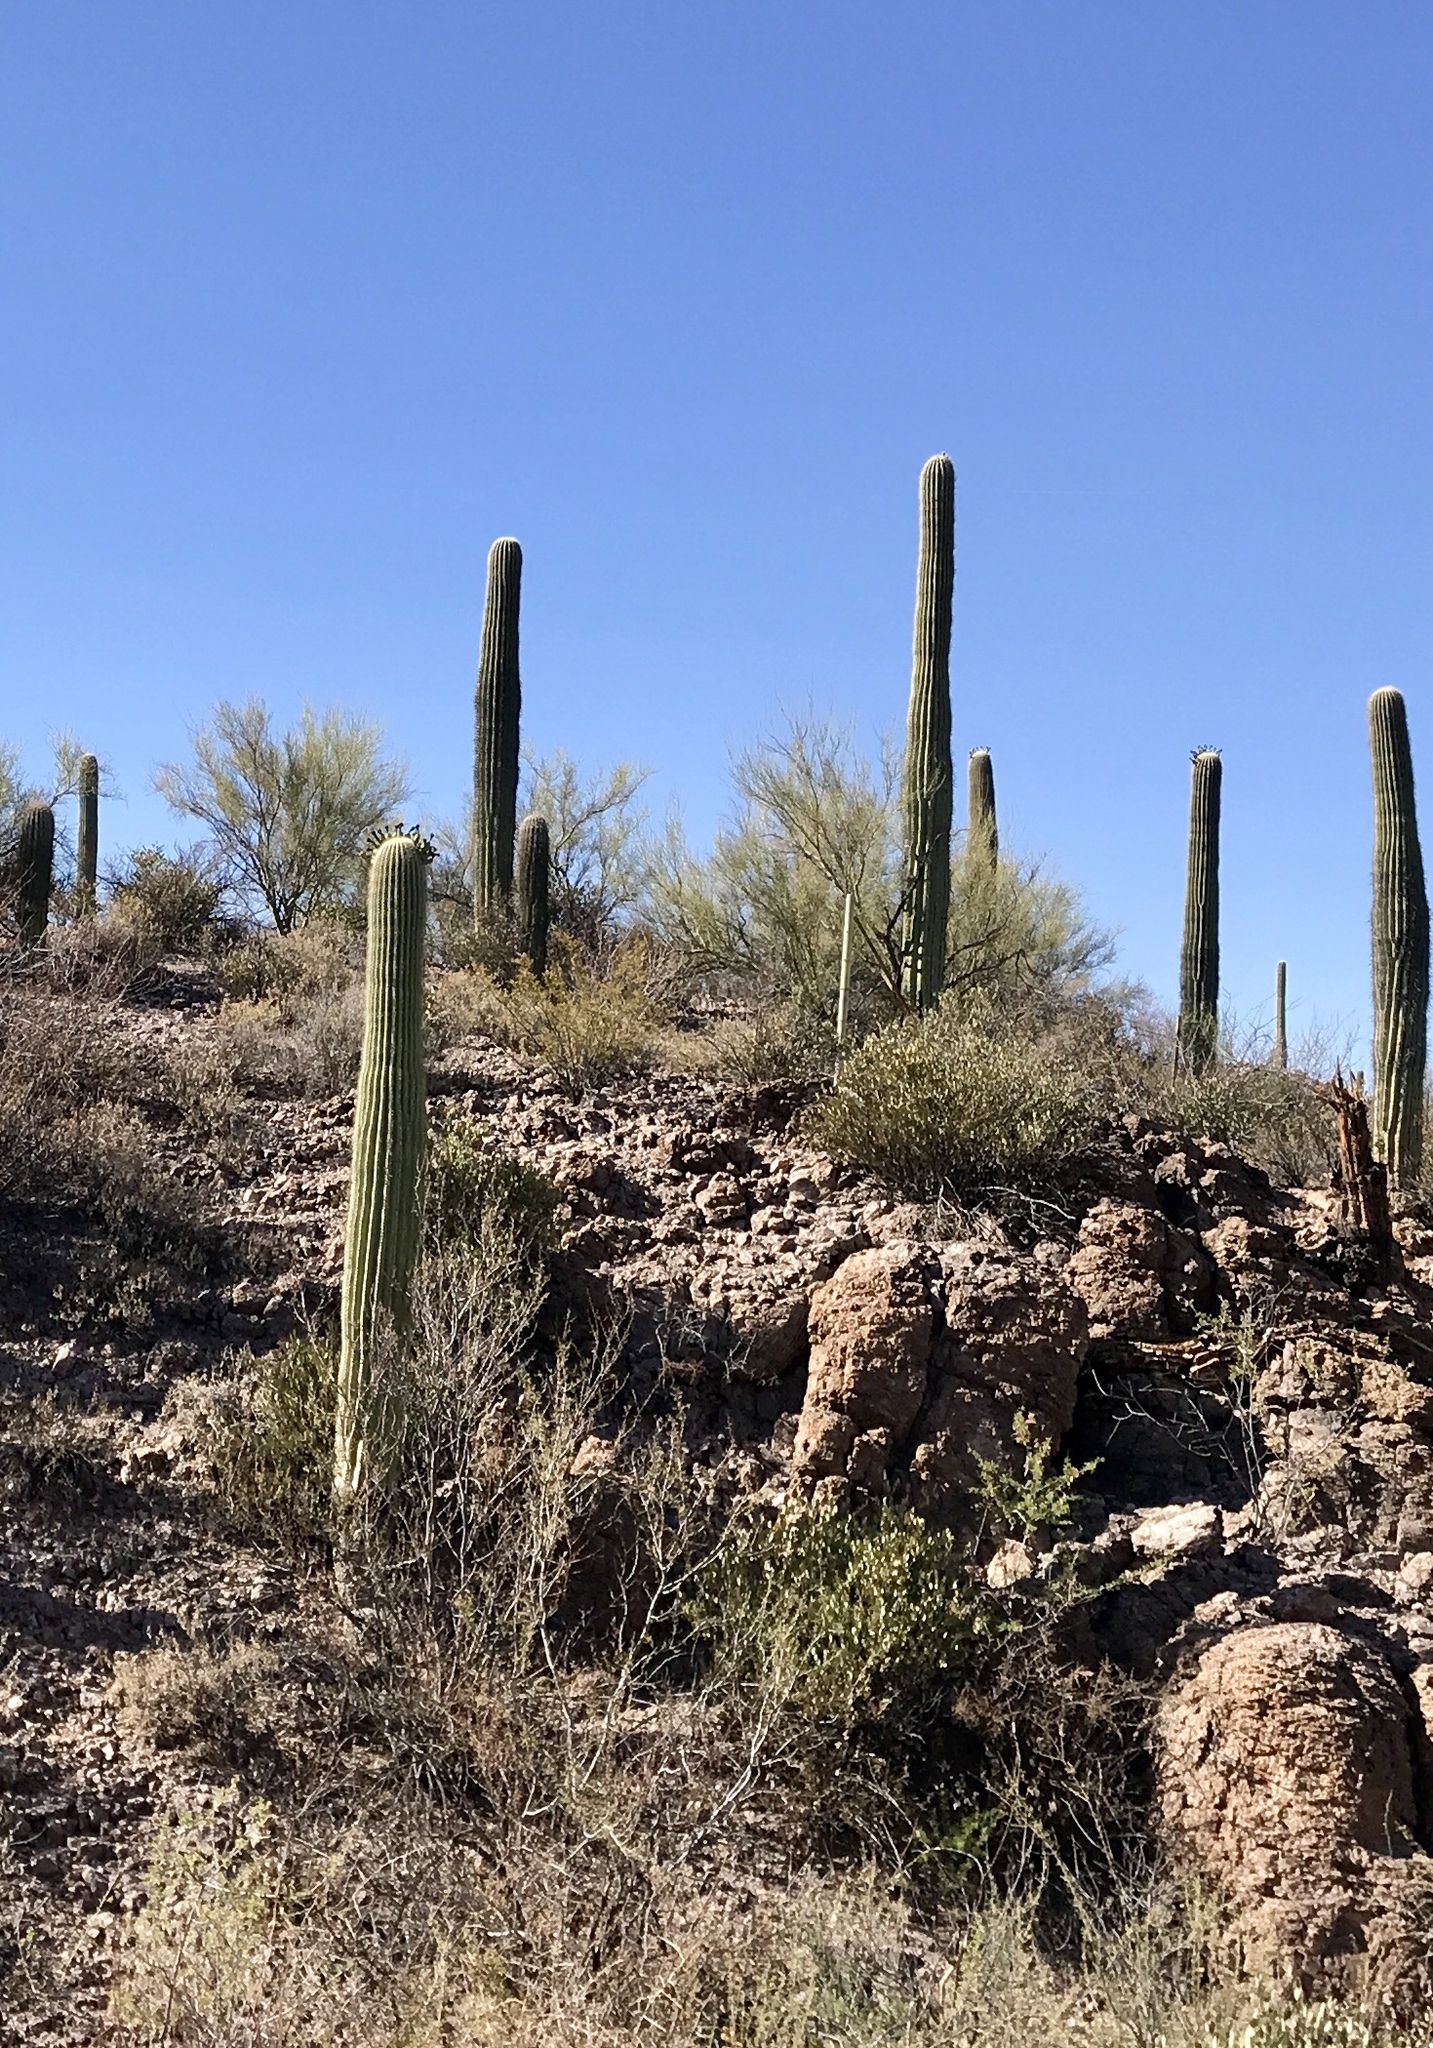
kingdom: Plantae
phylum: Tracheophyta
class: Magnoliopsida
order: Caryophyllales
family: Cactaceae
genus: Carnegiea
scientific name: Carnegiea gigantea
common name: Saguaro
